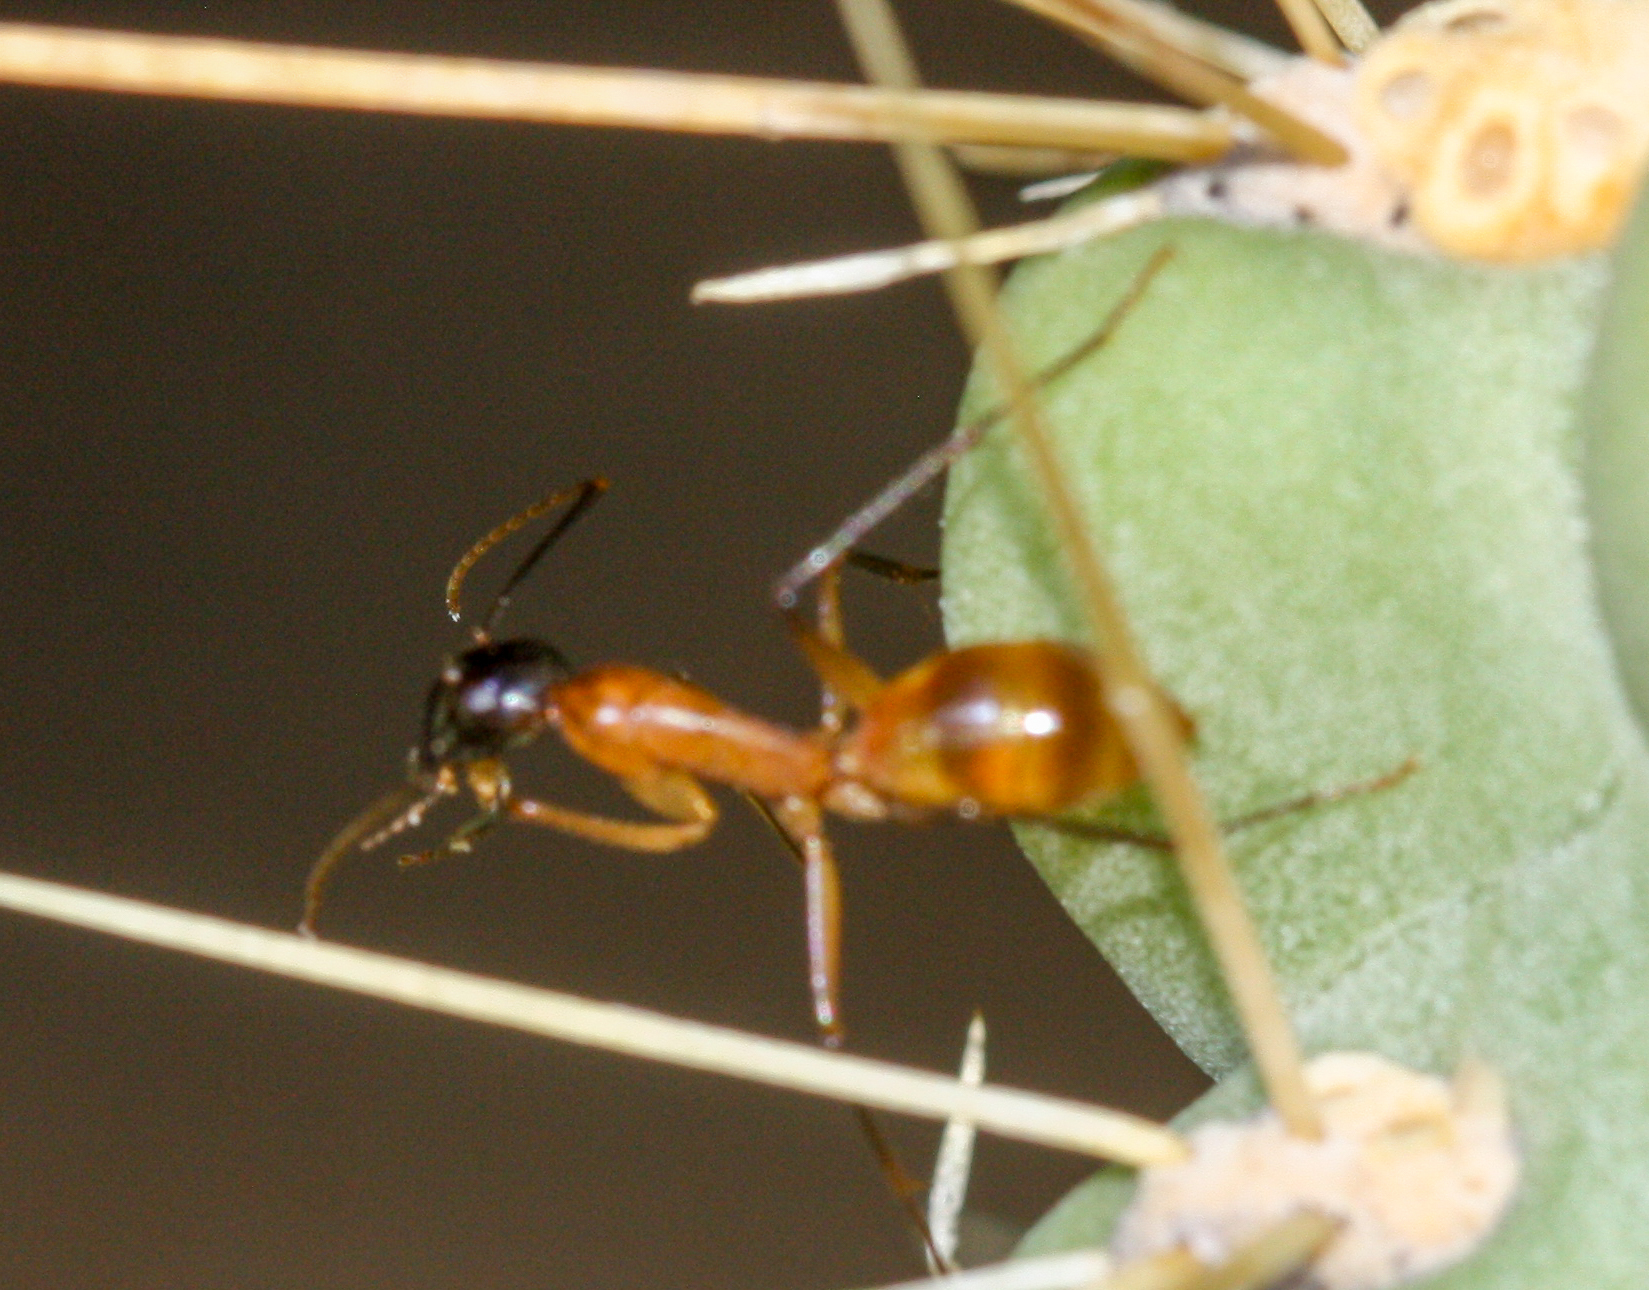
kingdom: Animalia
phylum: Arthropoda
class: Insecta
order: Hymenoptera
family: Formicidae
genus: Camponotus
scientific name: Camponotus ocreatus
